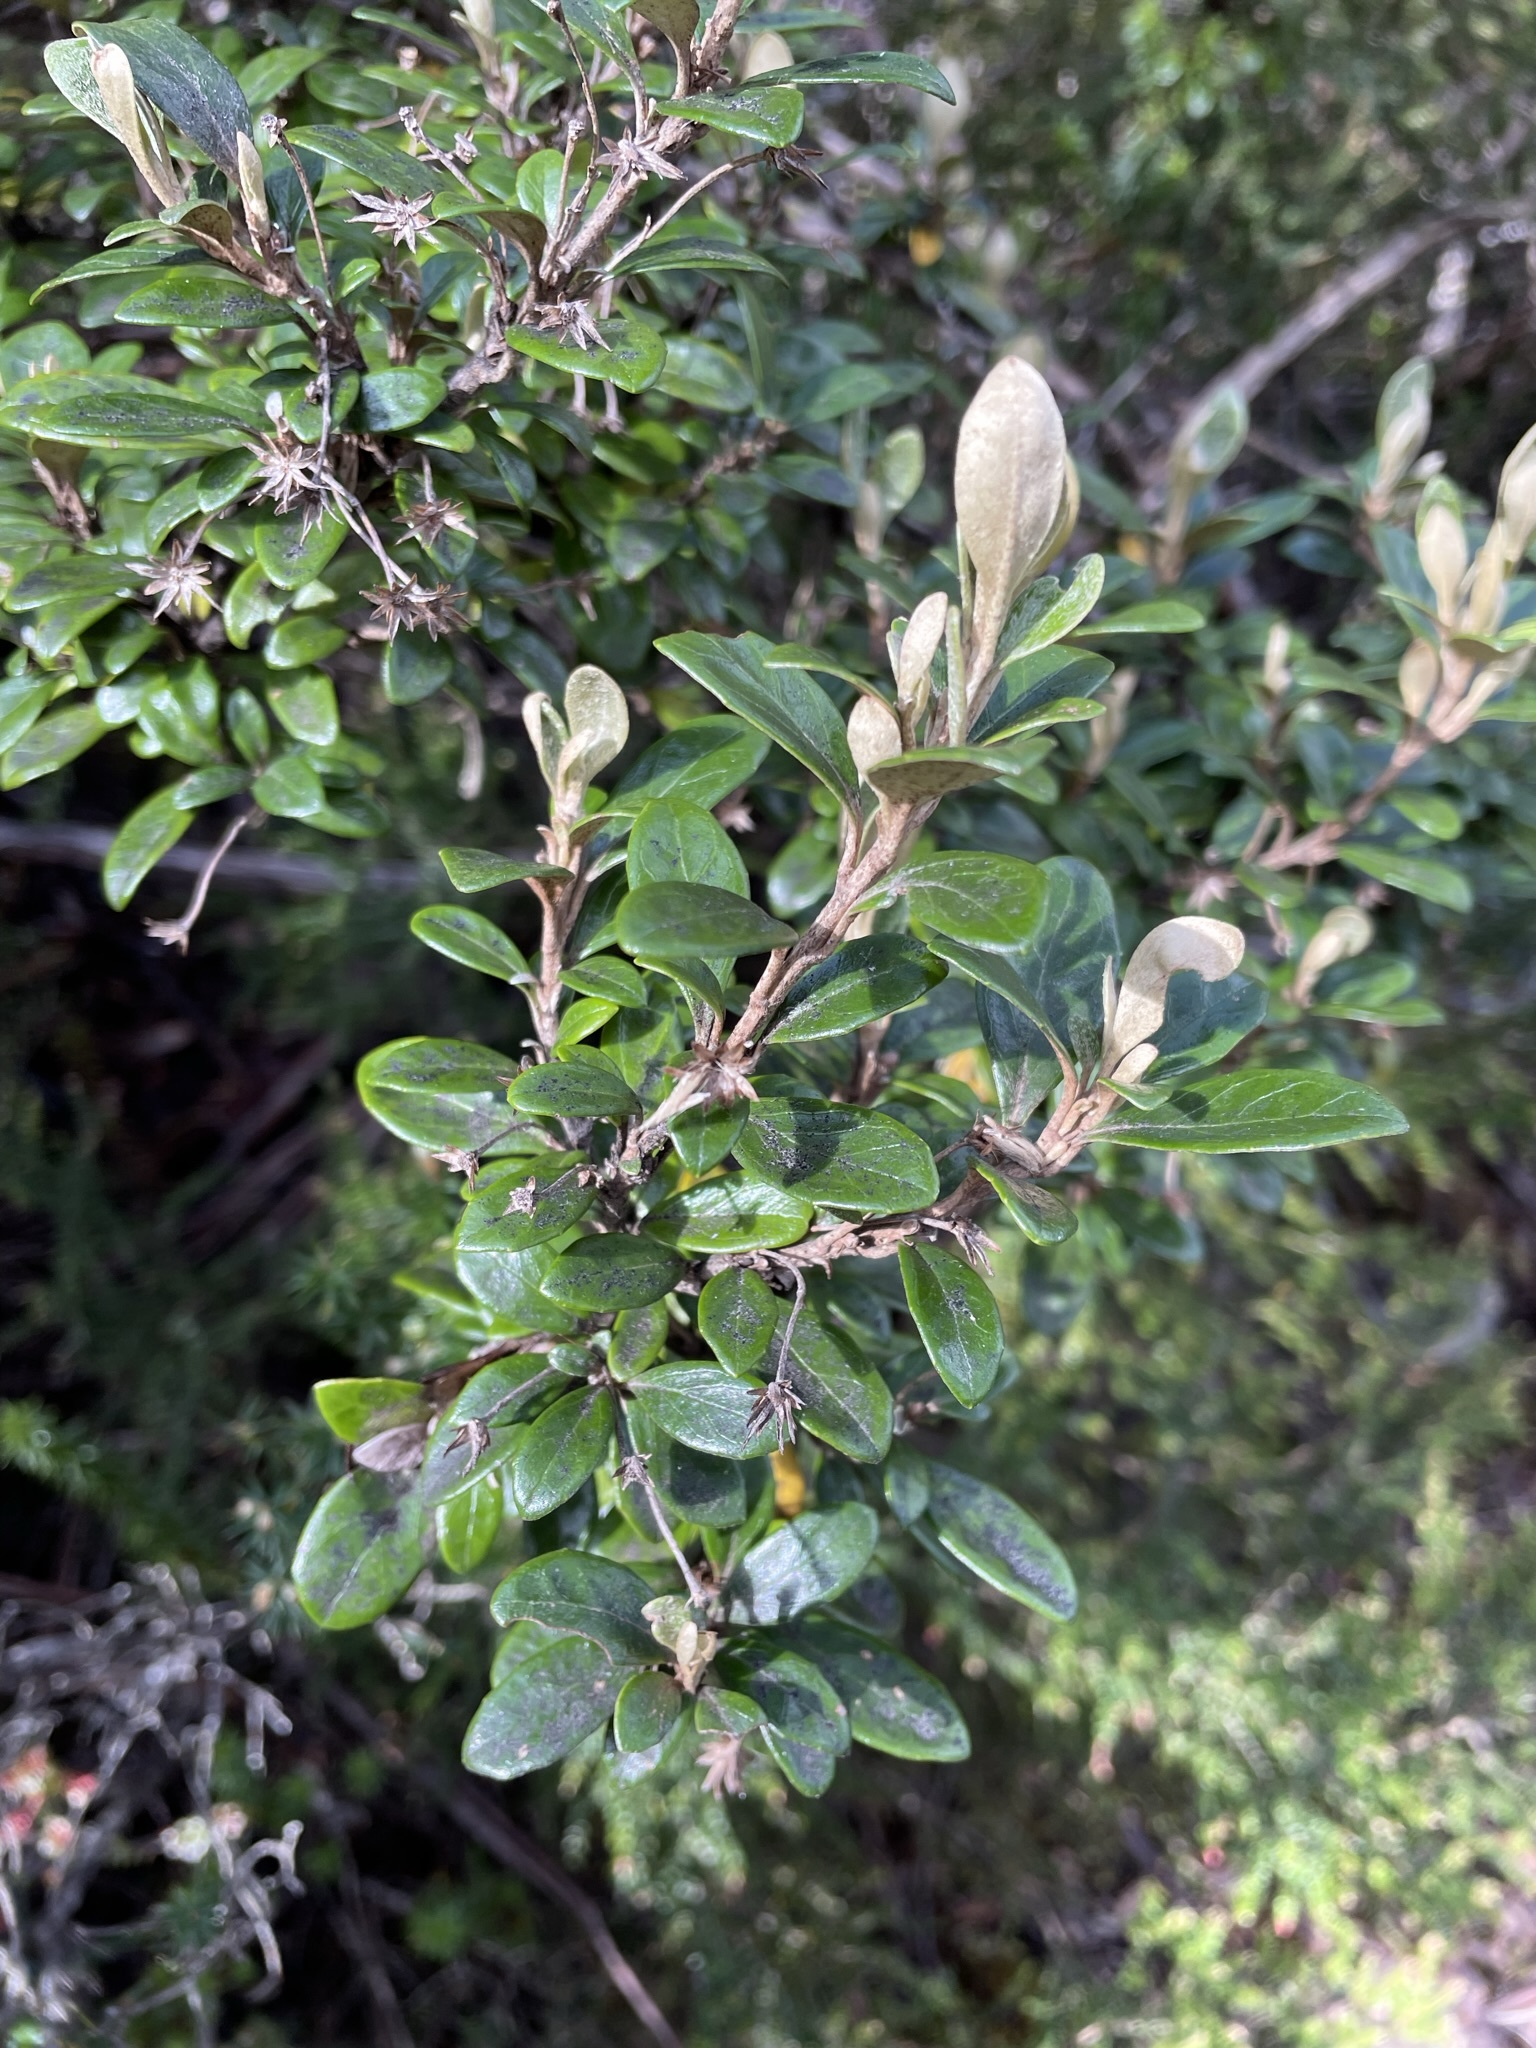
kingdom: Plantae
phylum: Tracheophyta
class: Magnoliopsida
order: Asterales
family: Asteraceae
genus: Olearia
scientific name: Olearia persoonioides
